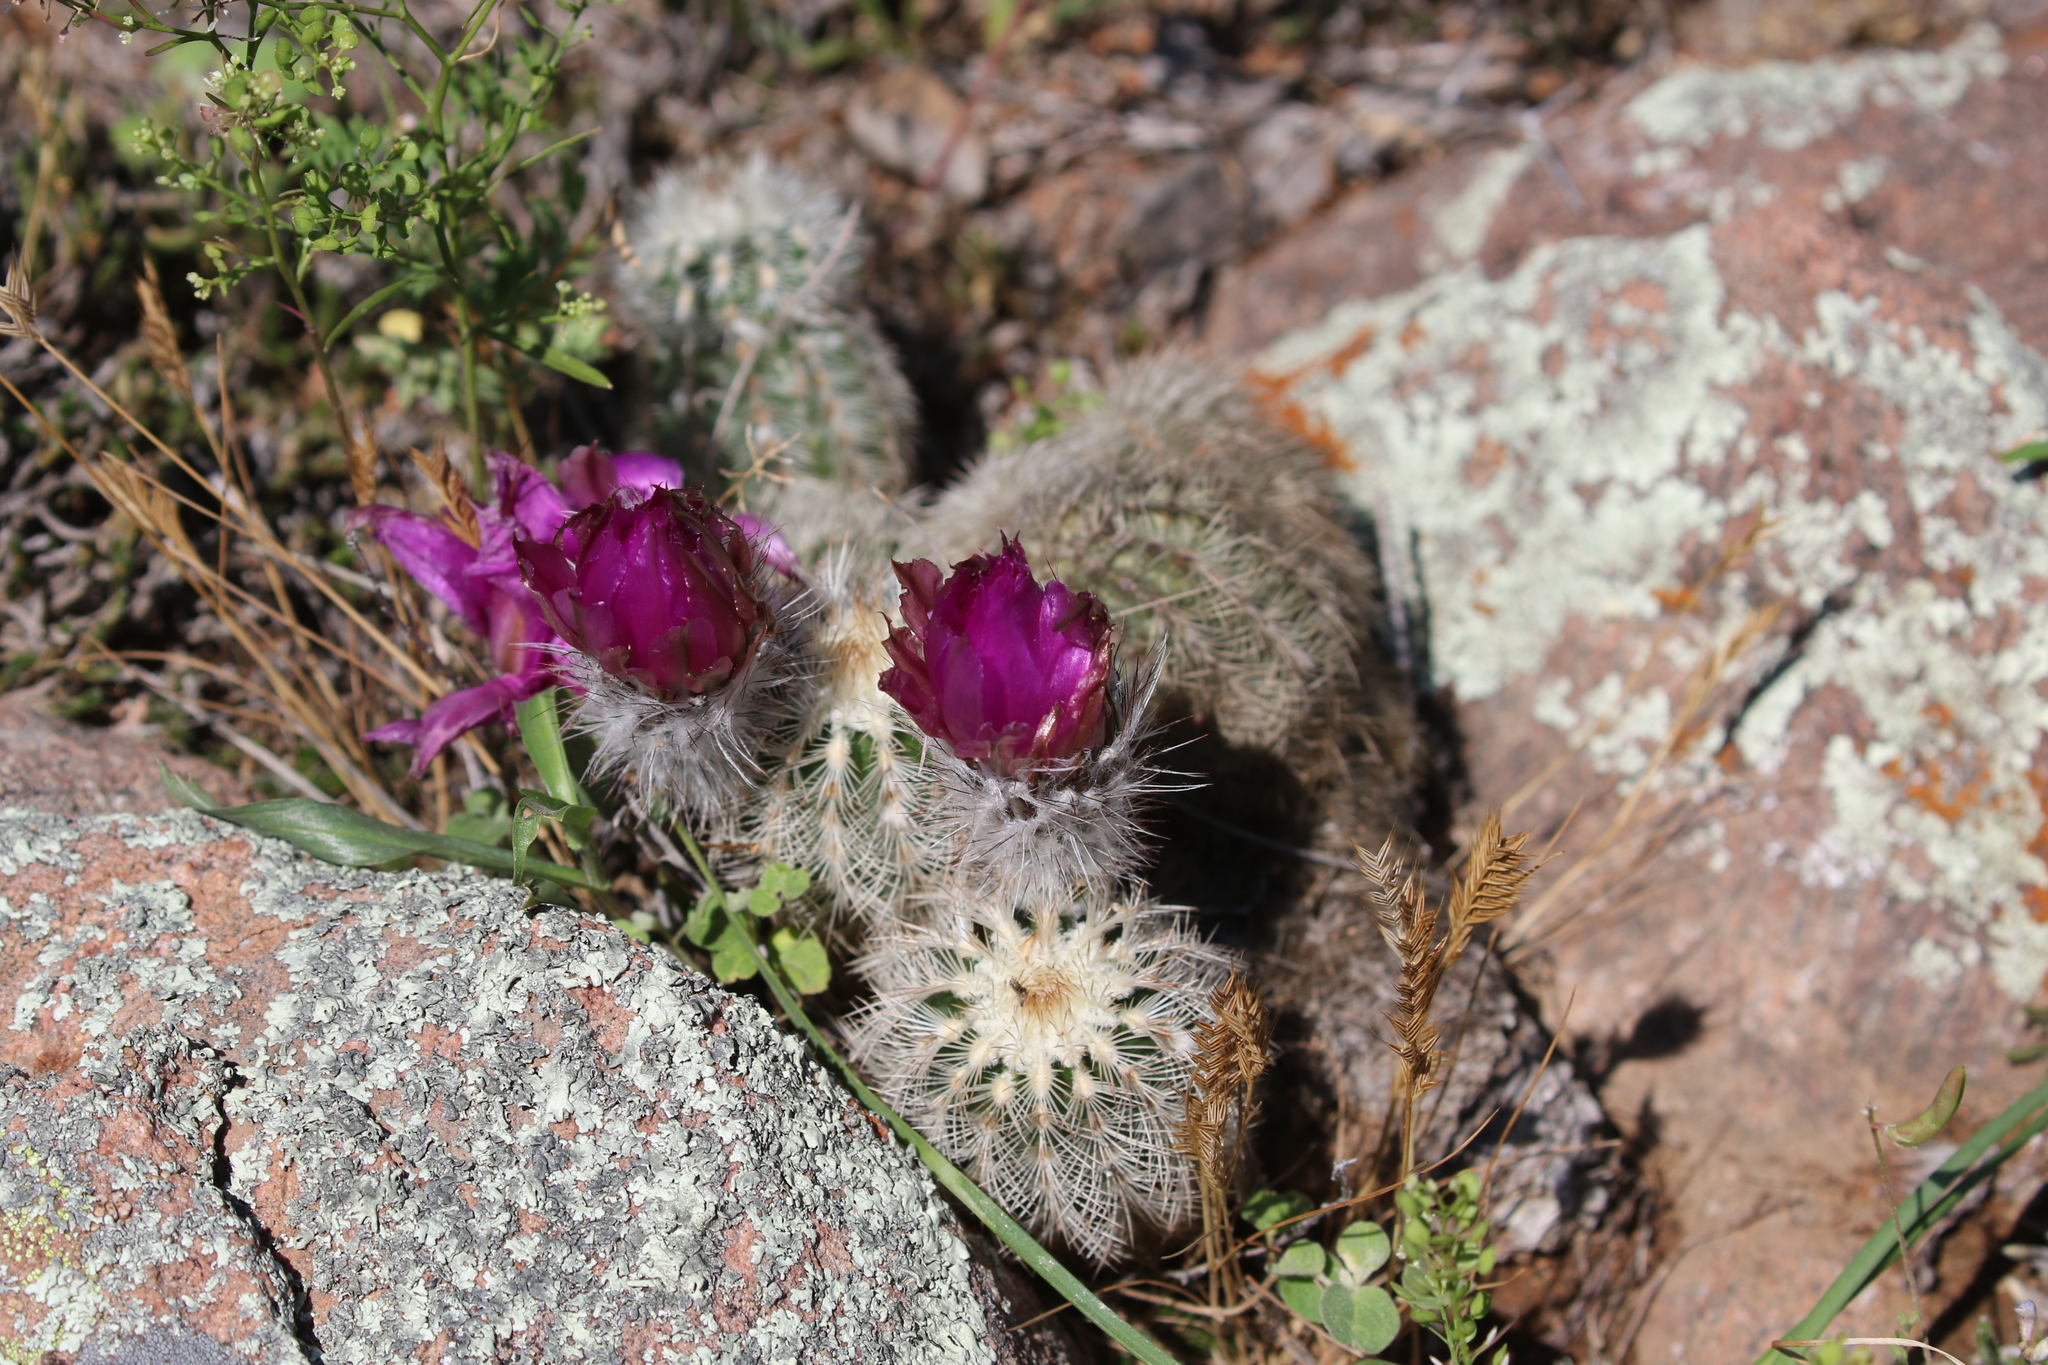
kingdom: Plantae
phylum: Tracheophyta
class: Magnoliopsida
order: Caryophyllales
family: Cactaceae
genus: Echinocereus
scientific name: Echinocereus reichenbachii
